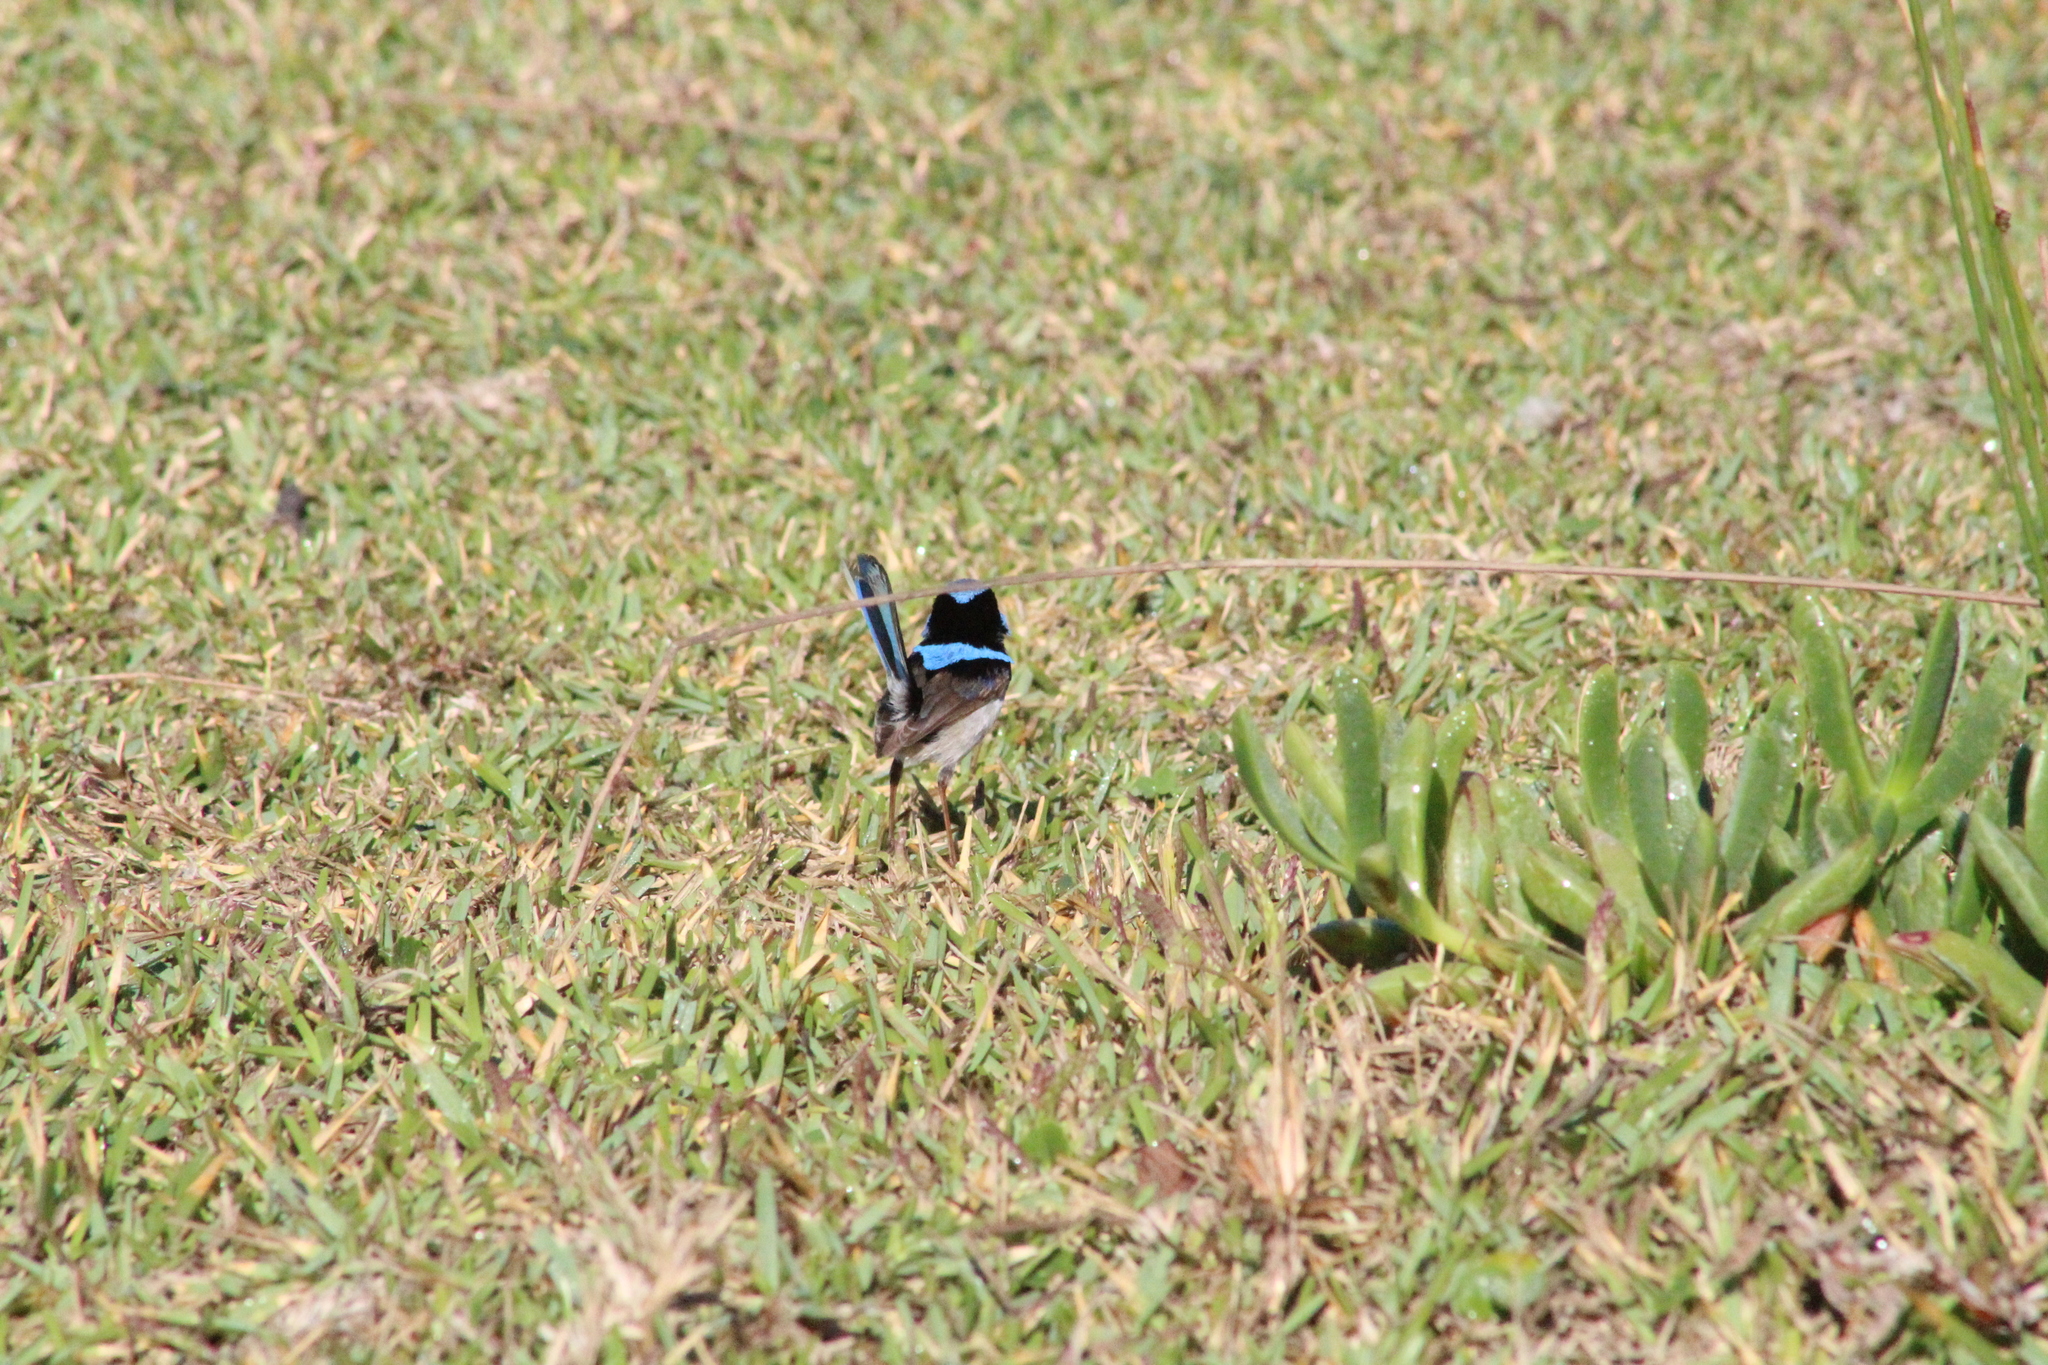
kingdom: Animalia
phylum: Chordata
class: Aves
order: Passeriformes
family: Maluridae
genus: Malurus
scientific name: Malurus cyaneus
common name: Superb fairywren
